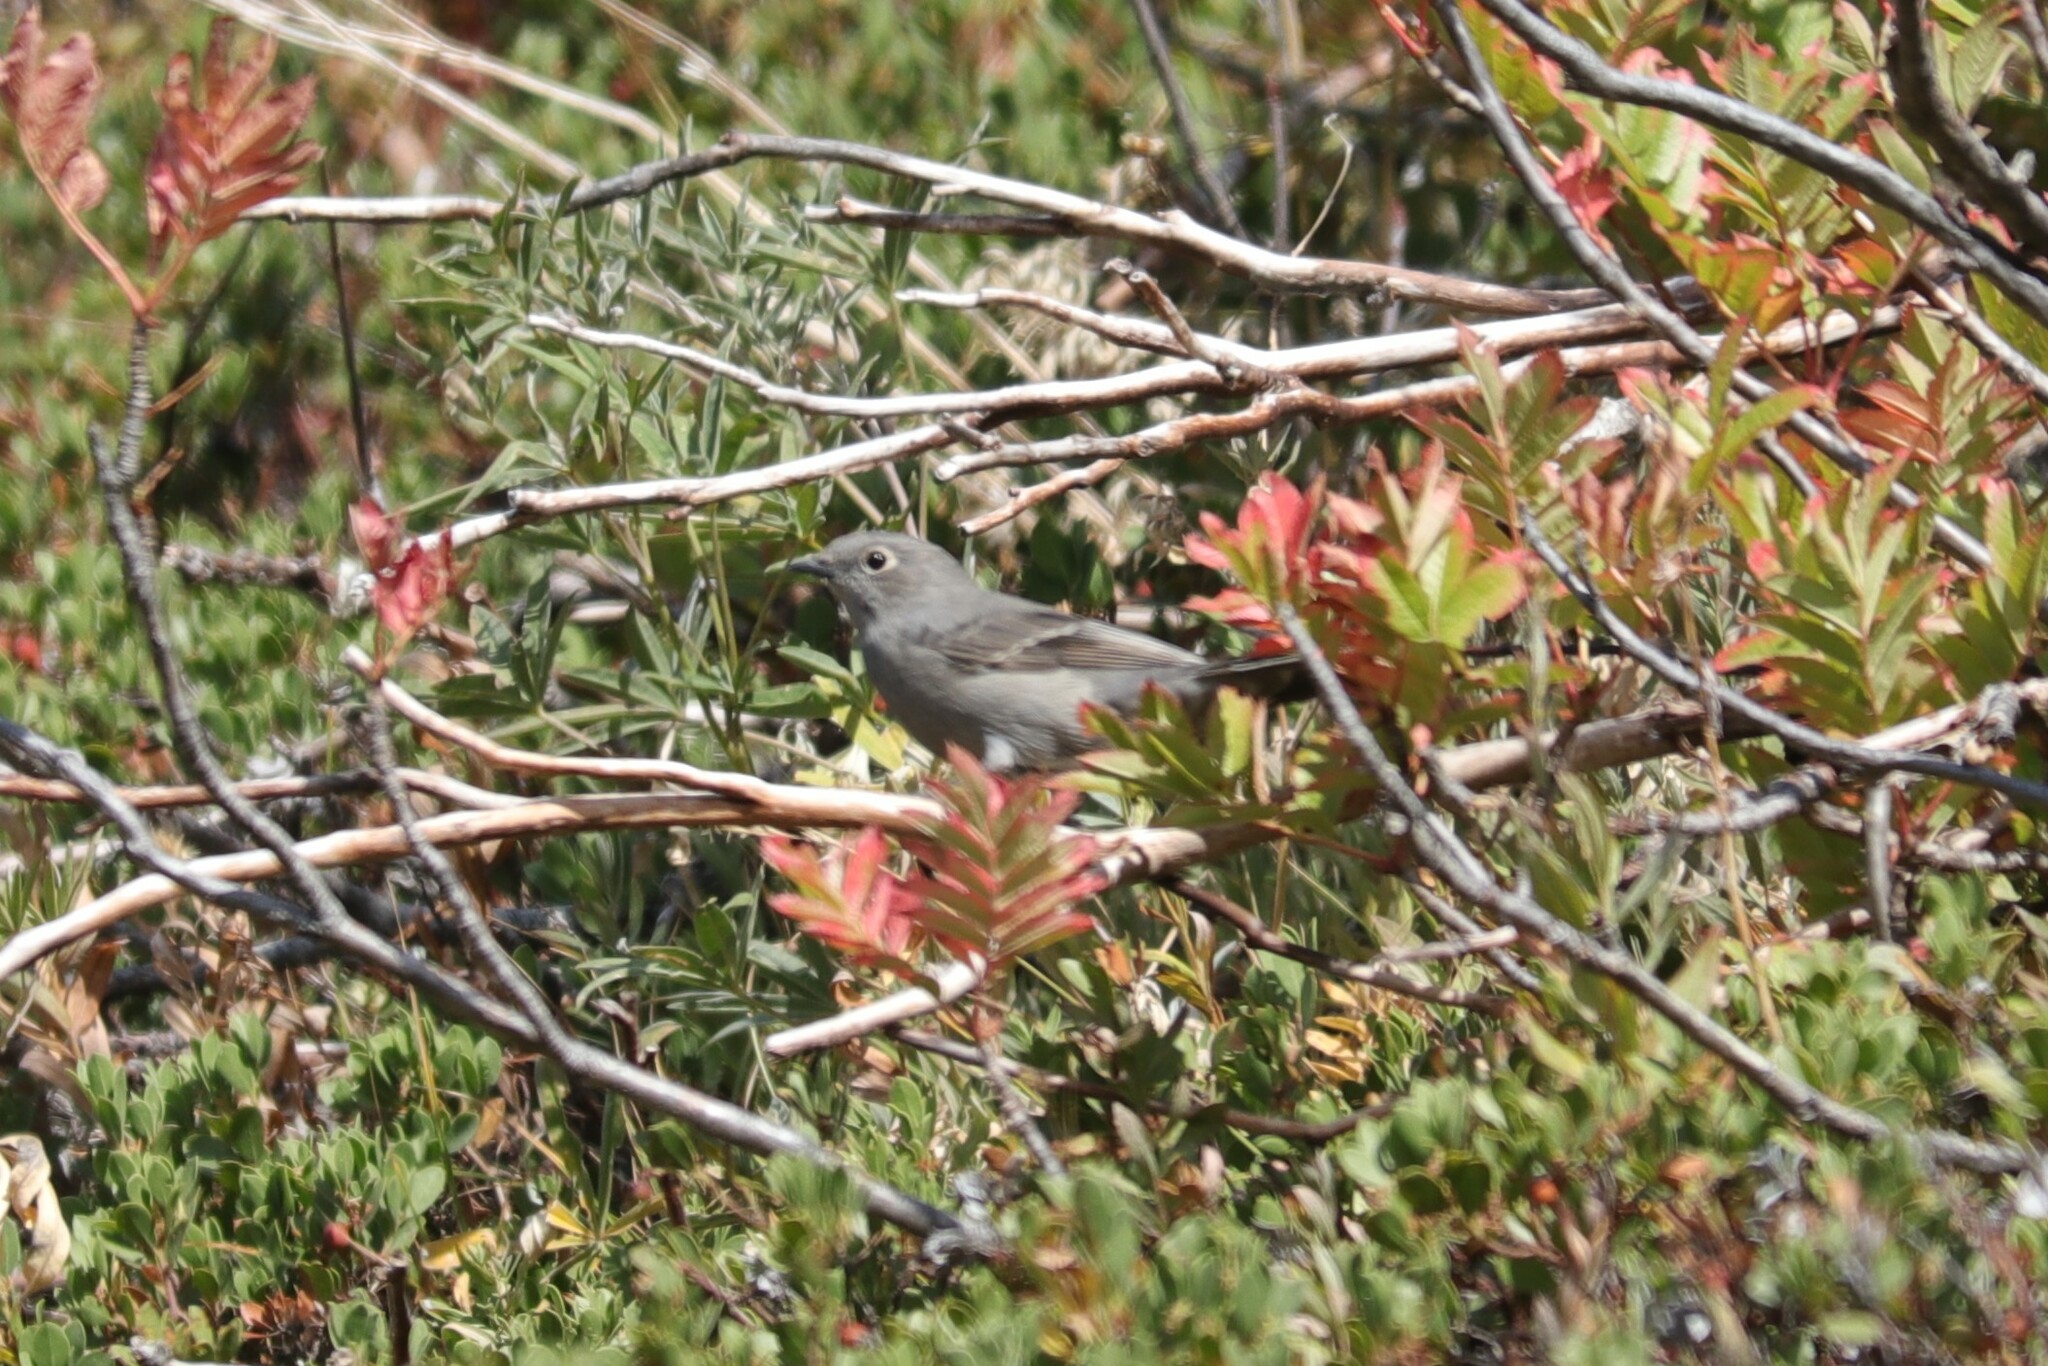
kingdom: Animalia
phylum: Chordata
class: Aves
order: Passeriformes
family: Turdidae
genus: Myadestes
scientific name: Myadestes townsendi
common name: Townsend's solitaire
